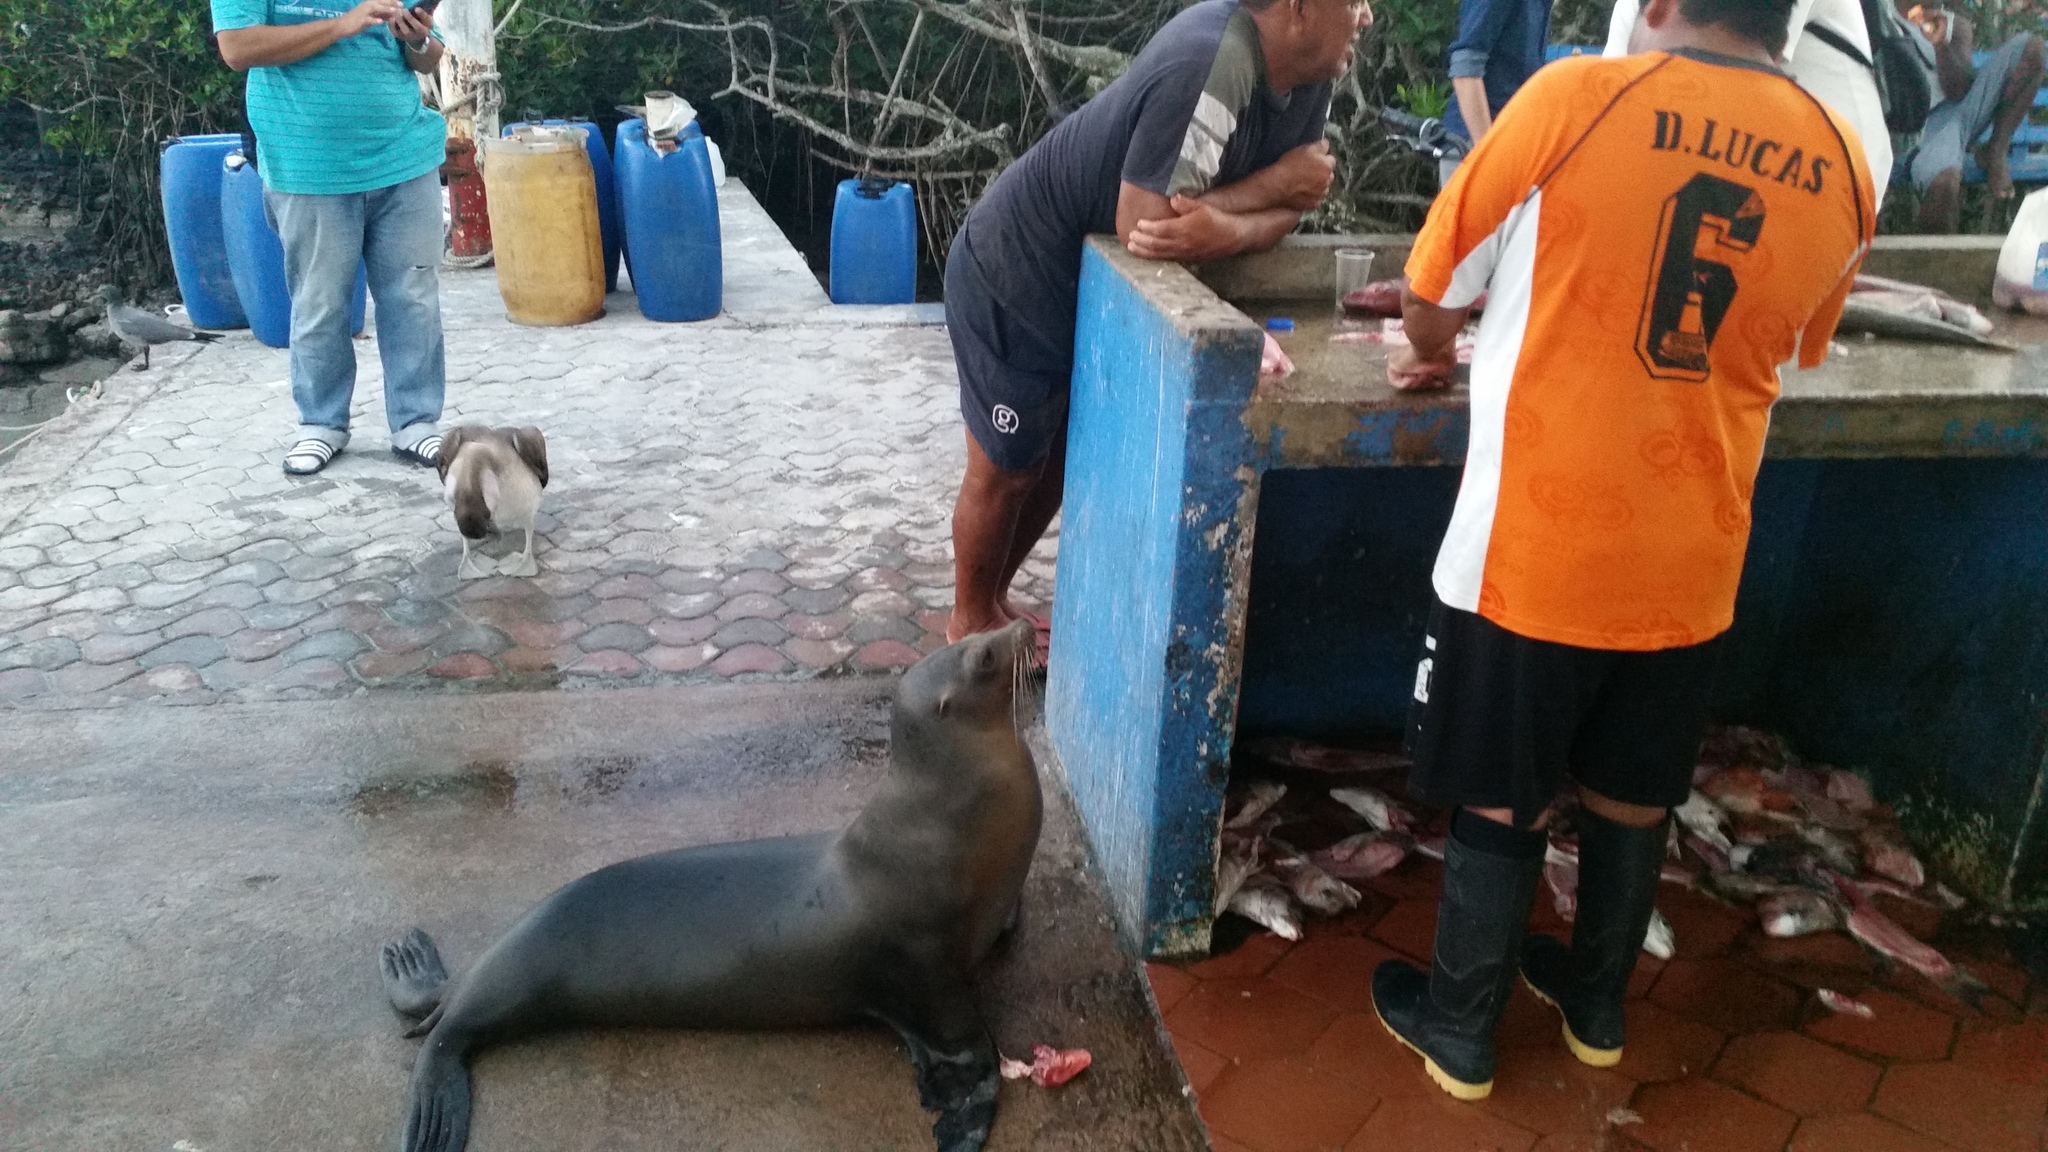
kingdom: Animalia
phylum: Chordata
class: Mammalia
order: Carnivora
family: Otariidae
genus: Zalophus
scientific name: Zalophus wollebaeki
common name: Galapagos sea lion
